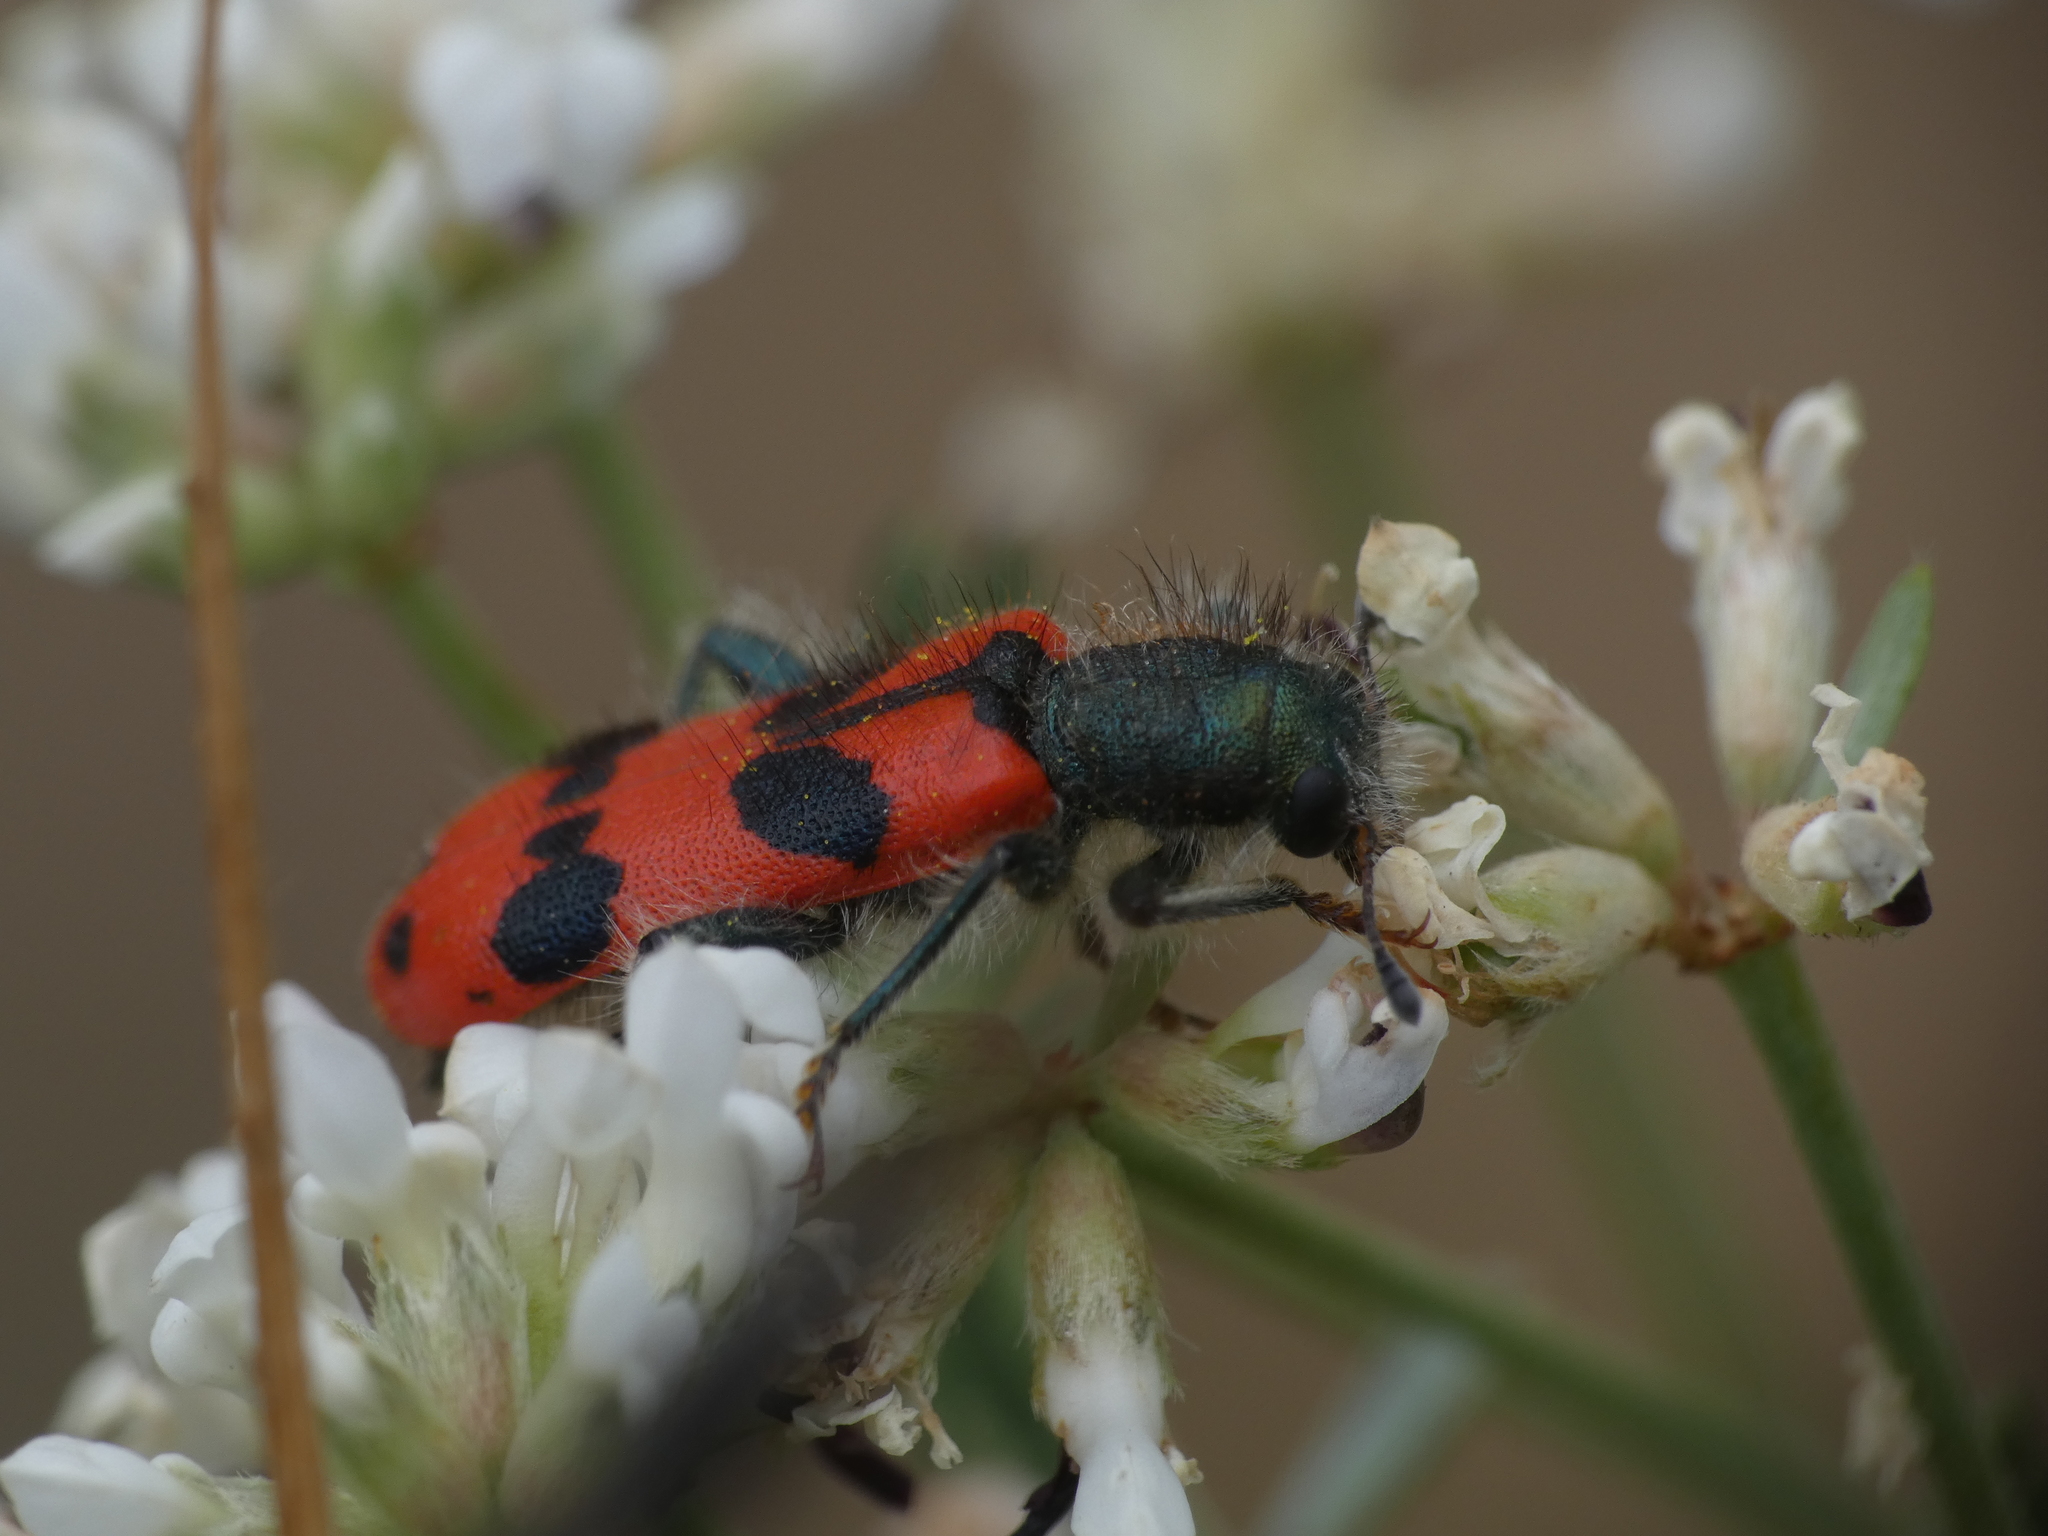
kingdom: Animalia
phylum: Arthropoda
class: Insecta
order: Coleoptera
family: Cleridae
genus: Trichodes
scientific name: Trichodes alvearius
